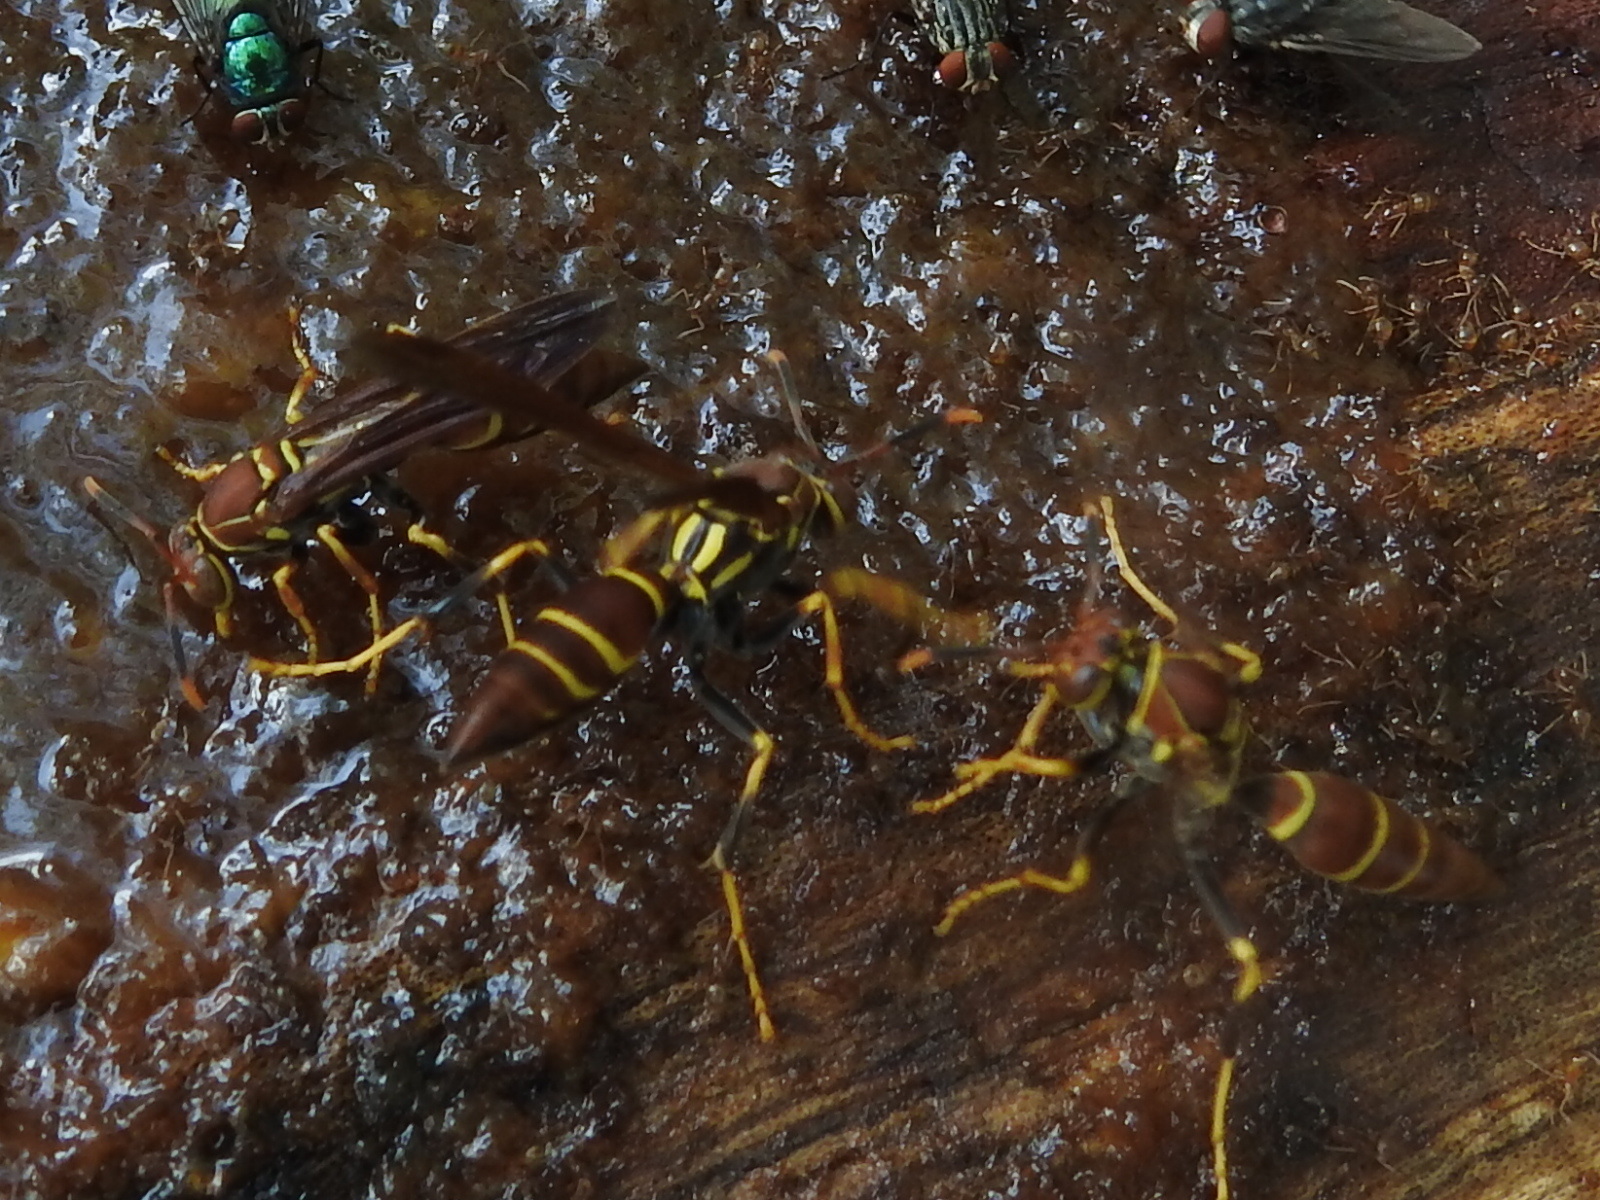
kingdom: Animalia
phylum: Arthropoda
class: Insecta
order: Hymenoptera
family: Eumenidae
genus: Polistes
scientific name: Polistes instabilis
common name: Unstable paper wasp
